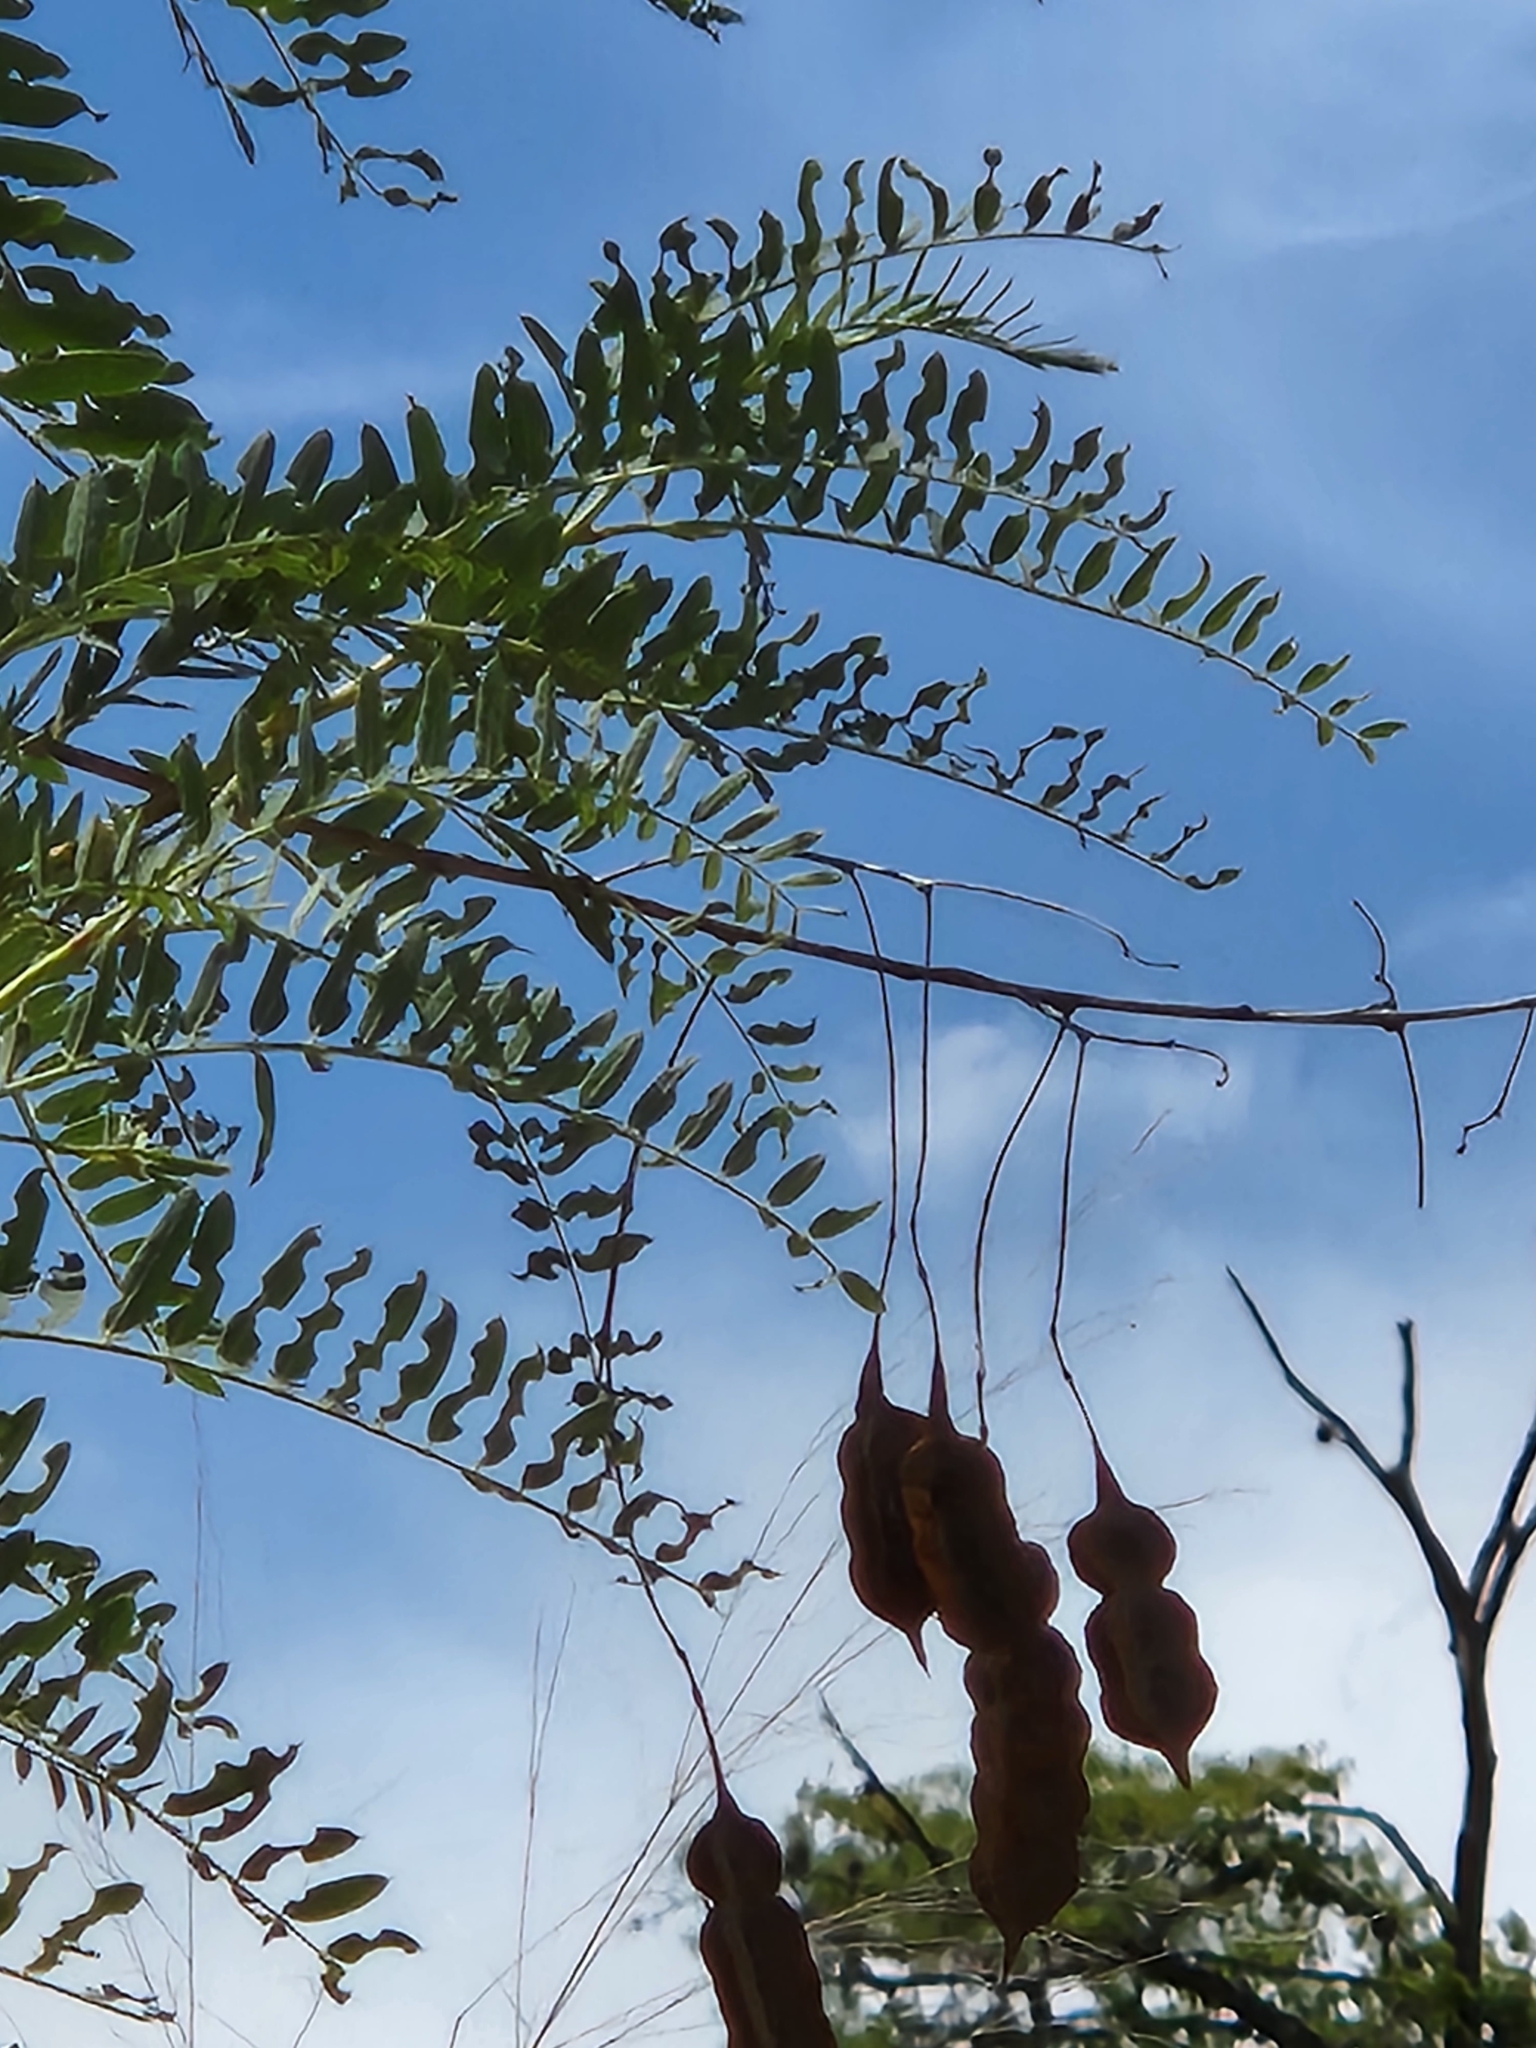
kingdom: Plantae
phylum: Tracheophyta
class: Magnoliopsida
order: Fabales
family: Fabaceae
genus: Sesbania
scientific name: Sesbania drummondii
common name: Poison-bean
